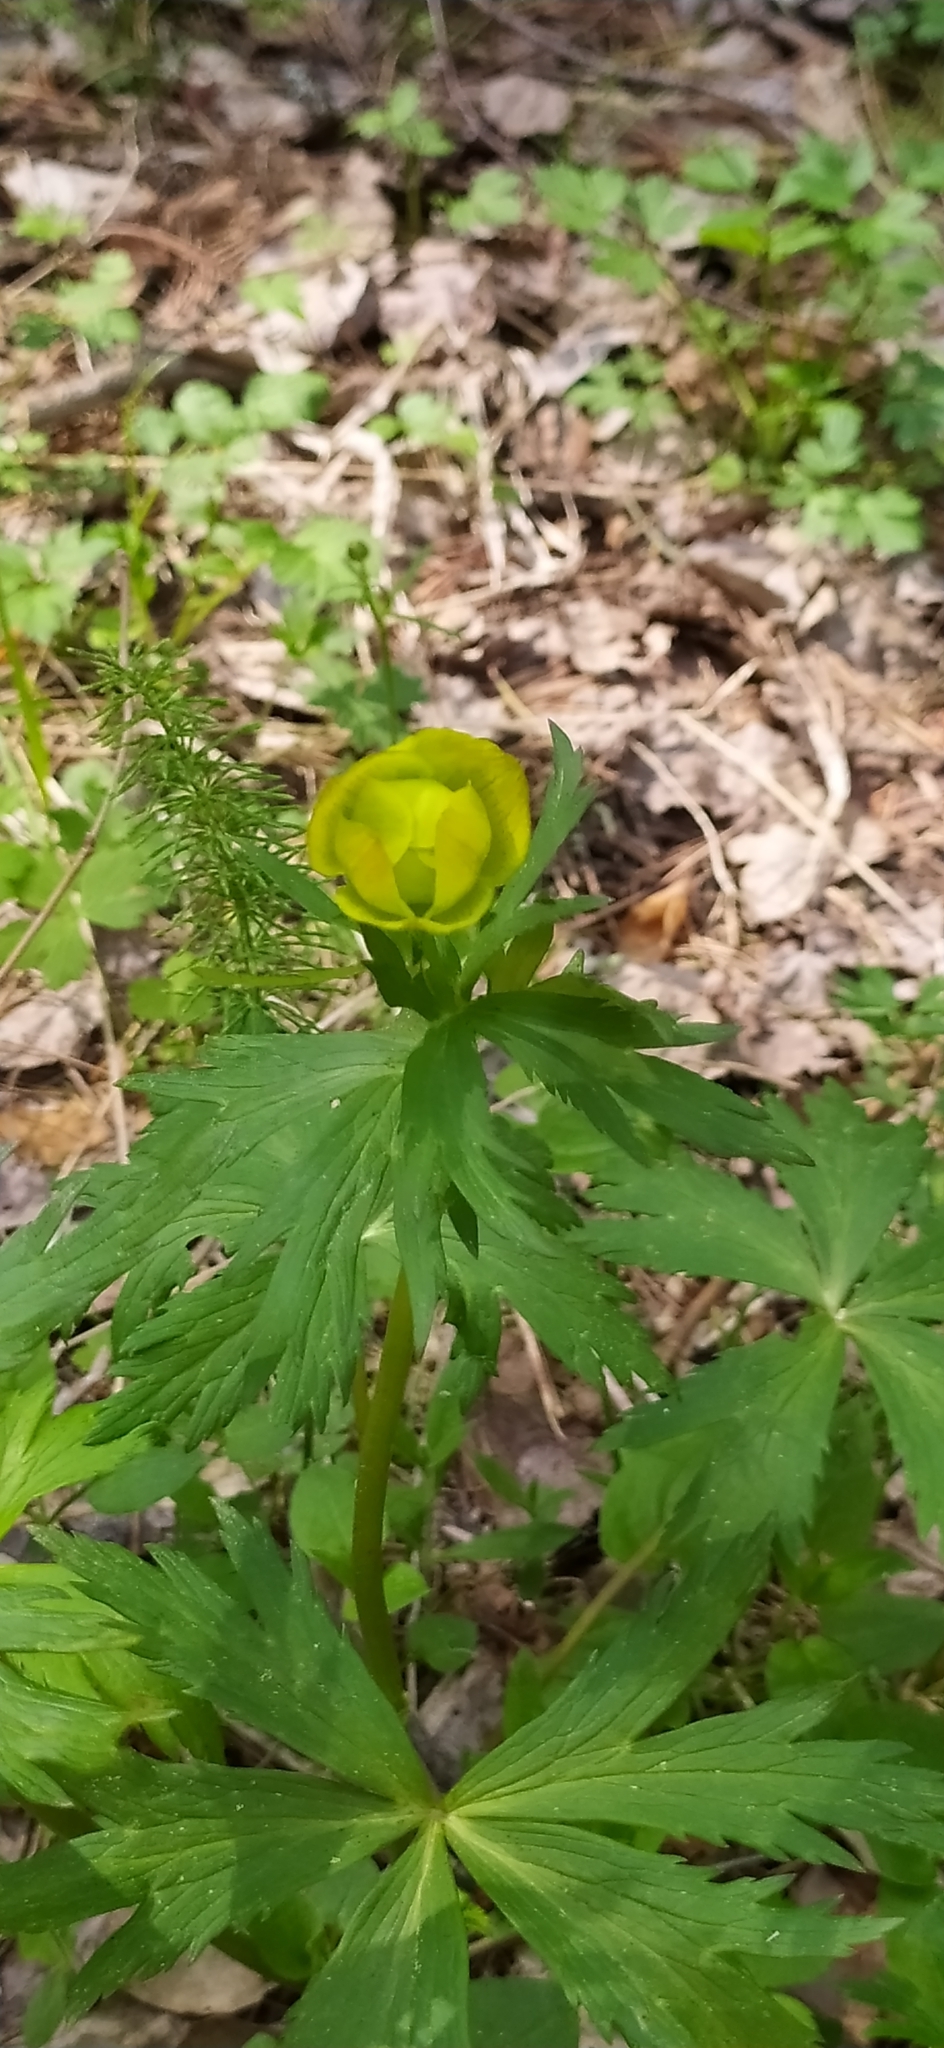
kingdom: Plantae
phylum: Tracheophyta
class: Magnoliopsida
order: Ranunculales
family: Ranunculaceae
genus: Trollius
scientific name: Trollius europaeus
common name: European globeflower
